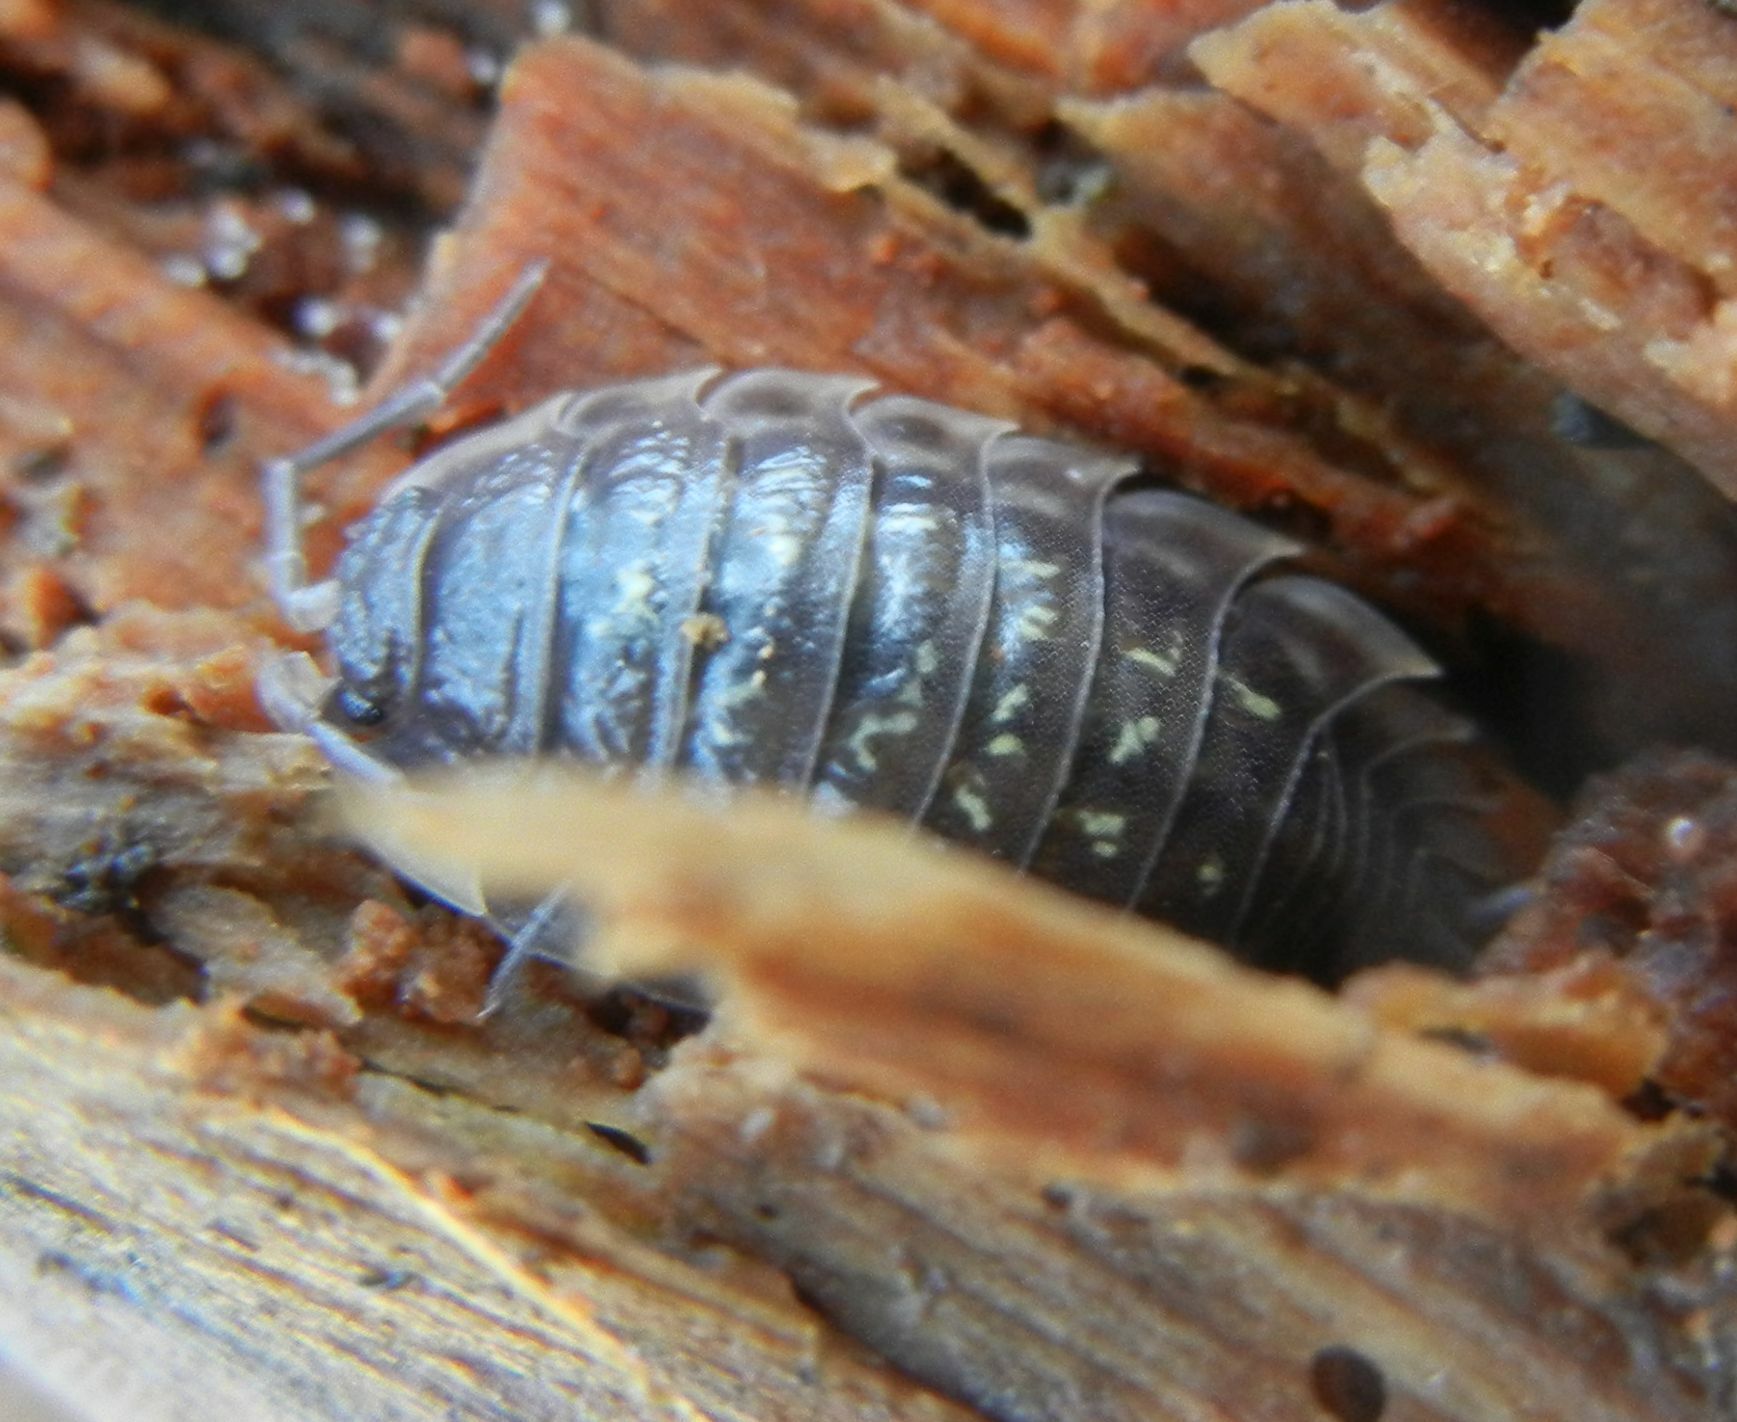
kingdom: Animalia
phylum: Arthropoda
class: Malacostraca
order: Isopoda
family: Oniscidae
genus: Oniscus
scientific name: Oniscus asellus
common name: Common shiny woodlouse
